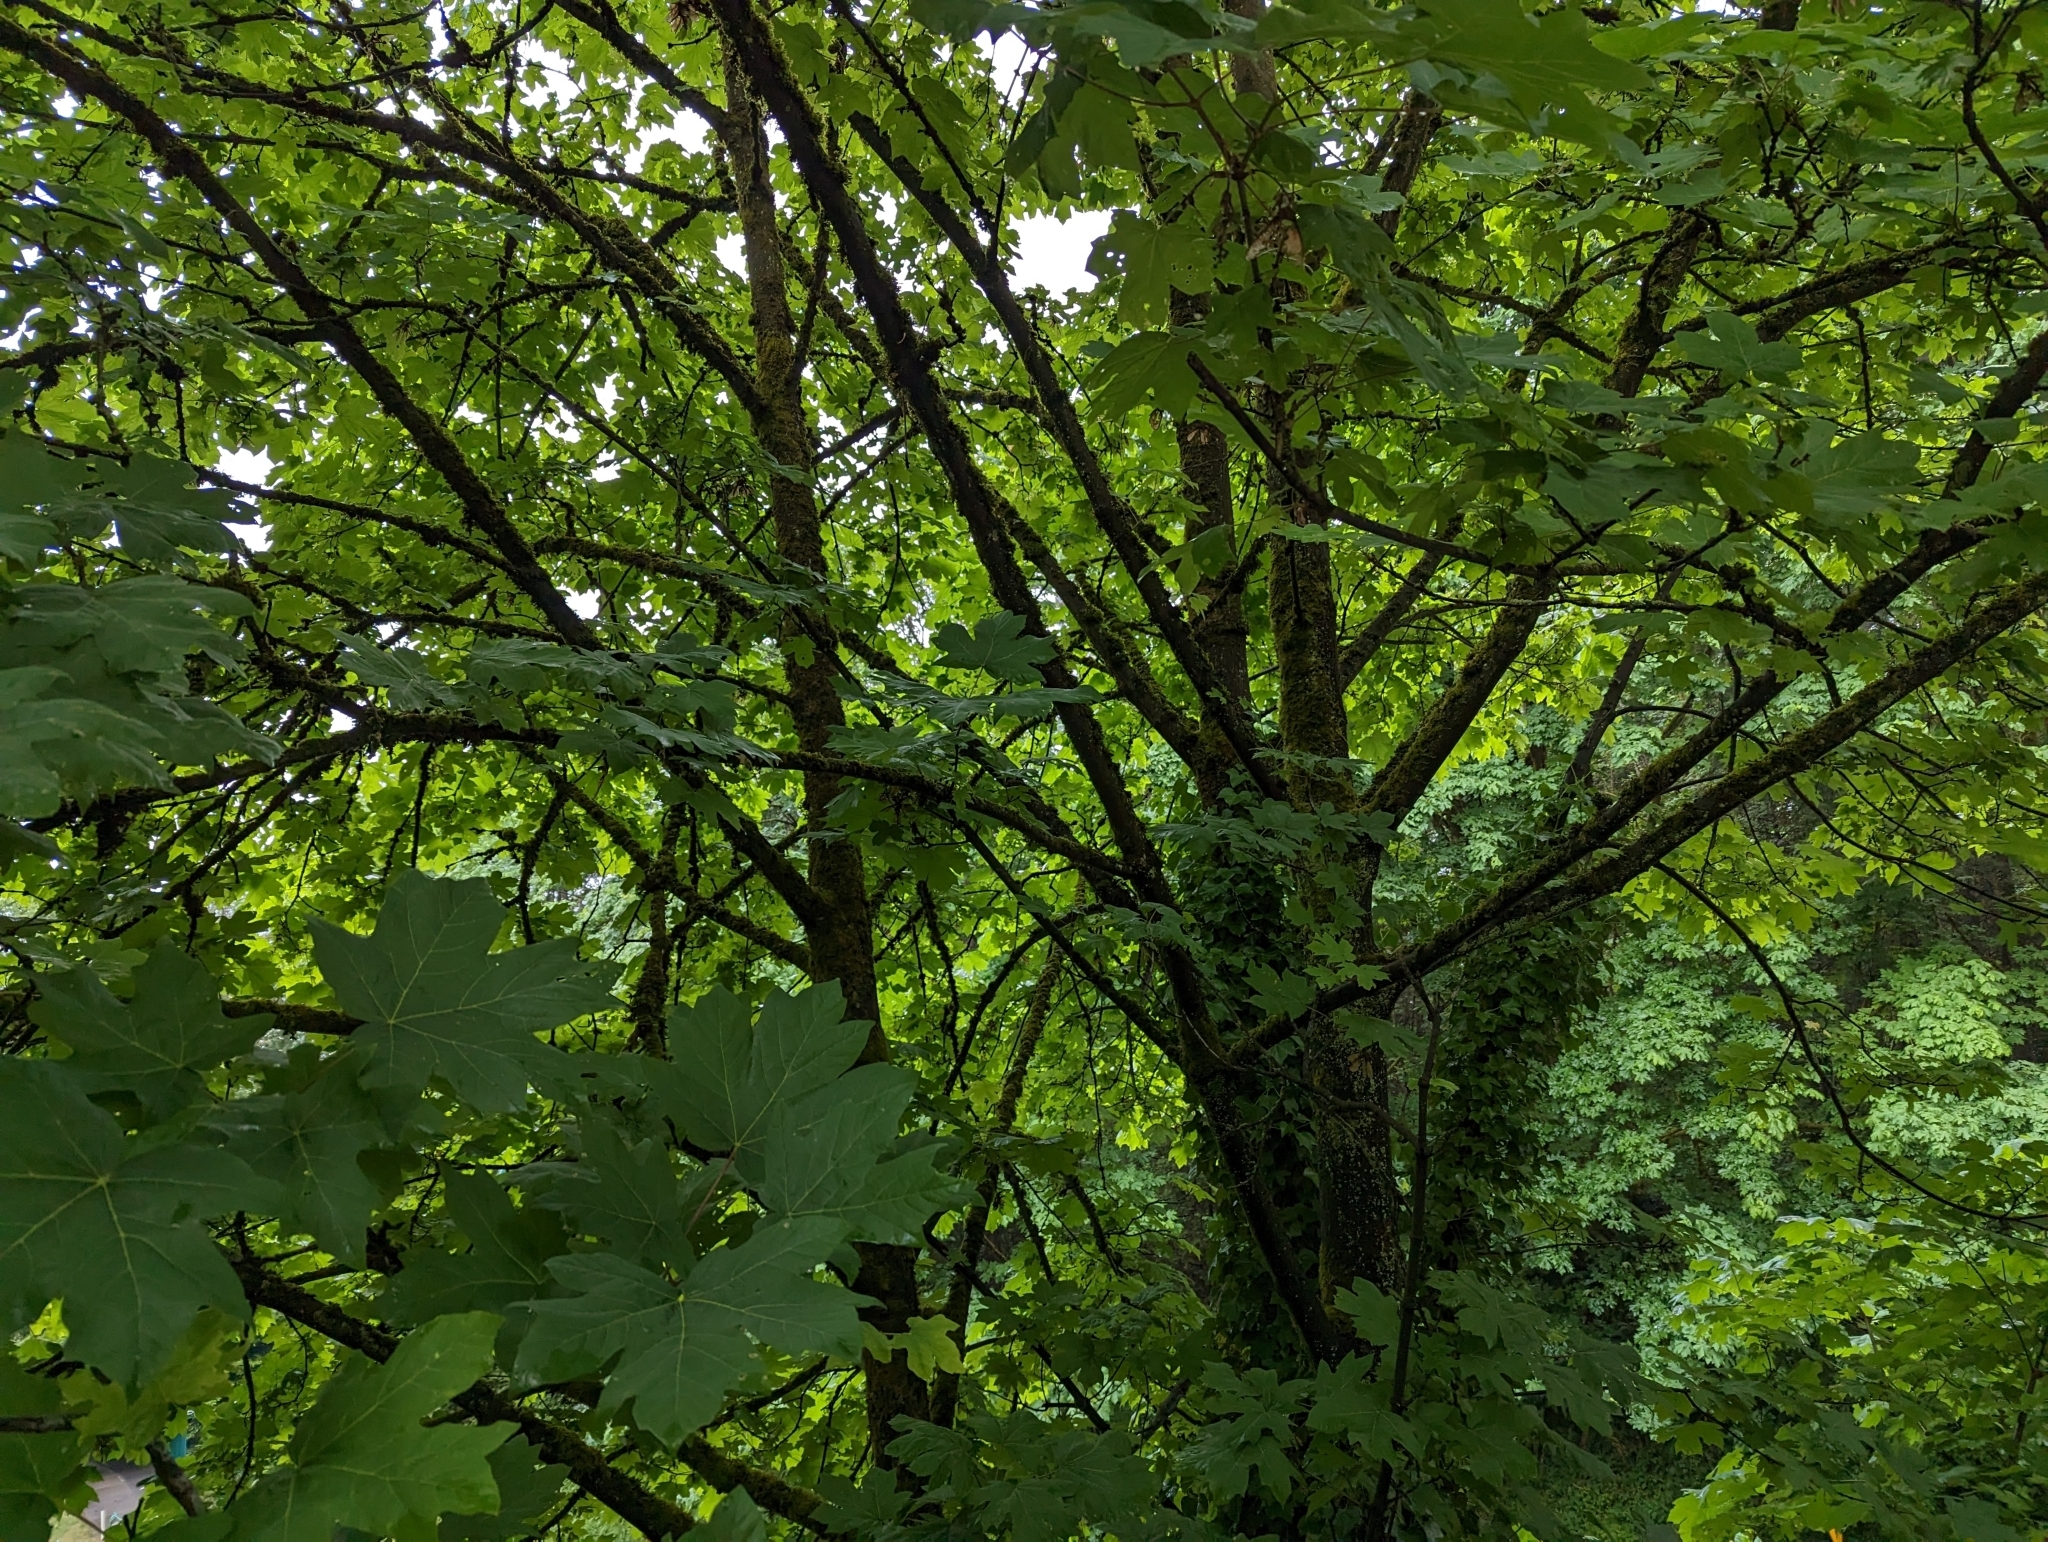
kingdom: Plantae
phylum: Tracheophyta
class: Magnoliopsida
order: Sapindales
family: Sapindaceae
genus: Acer
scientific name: Acer macrophyllum
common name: Oregon maple
